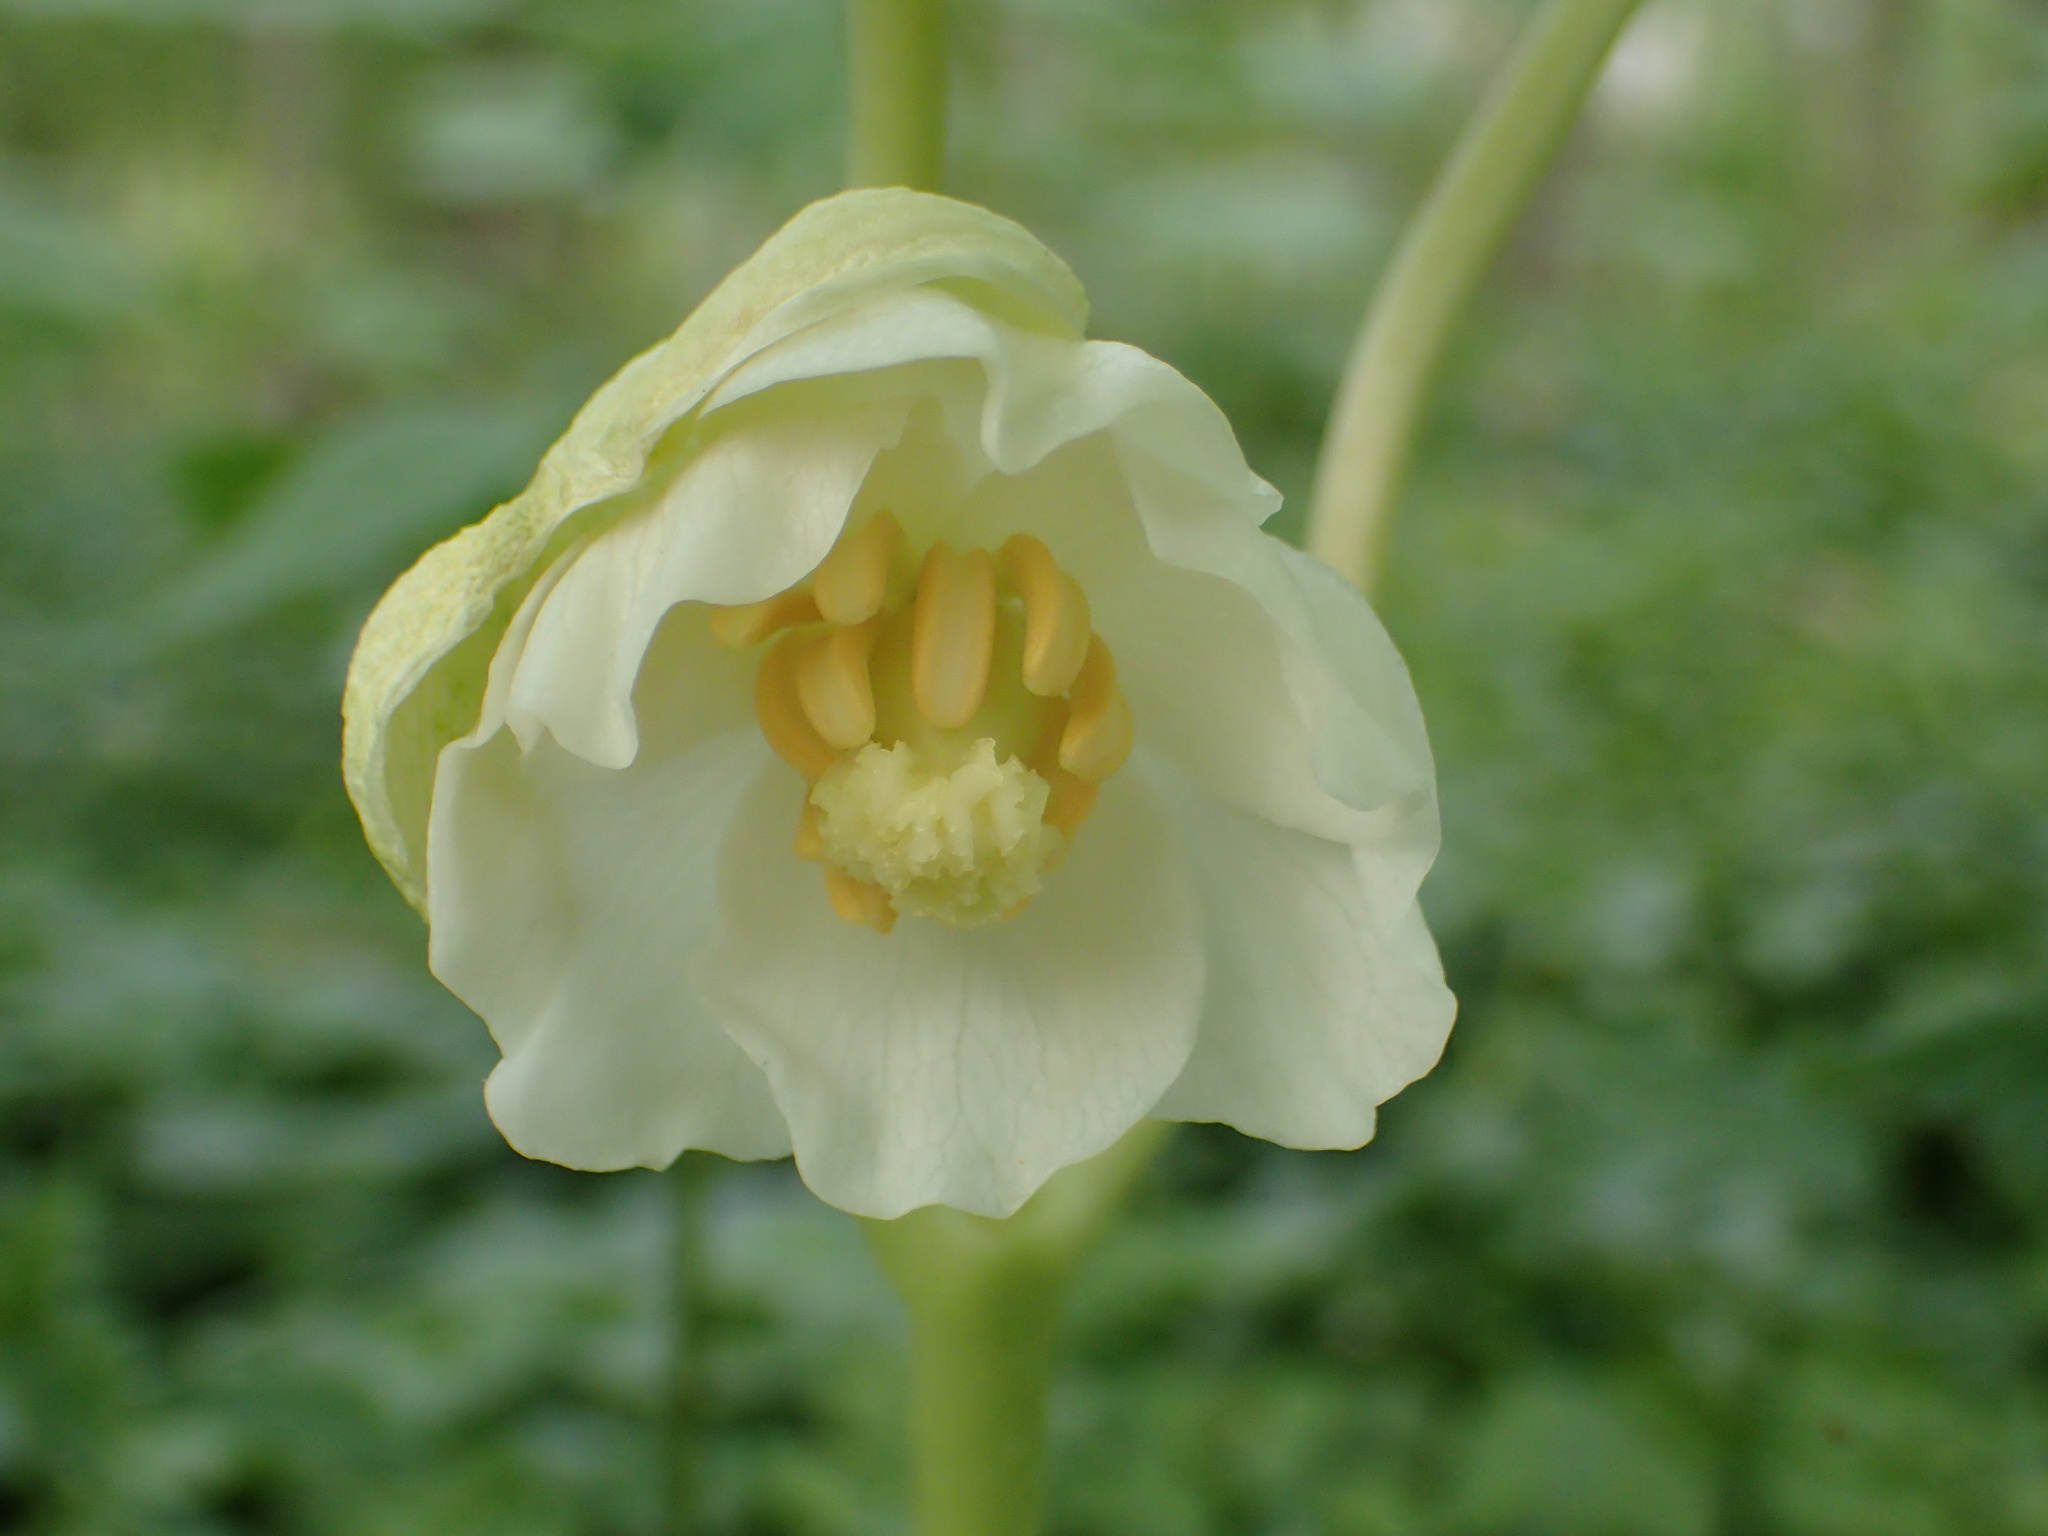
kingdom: Plantae
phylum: Tracheophyta
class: Magnoliopsida
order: Ranunculales
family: Berberidaceae
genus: Podophyllum
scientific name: Podophyllum peltatum
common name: Wild mandrake
